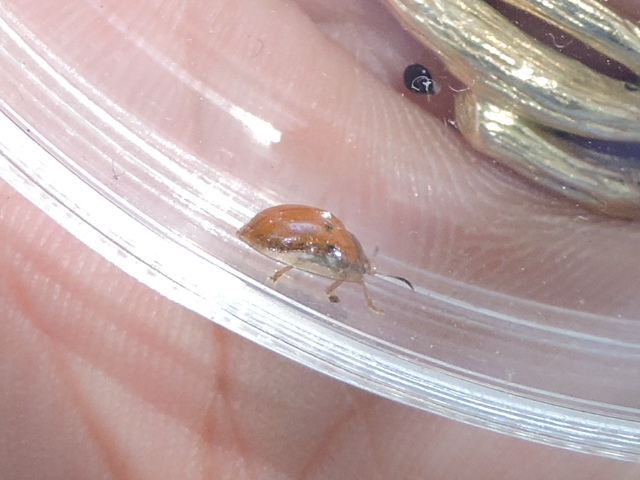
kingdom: Animalia
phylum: Arthropoda
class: Insecta
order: Coleoptera
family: Chrysomelidae
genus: Charidotella
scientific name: Charidotella sexpunctata
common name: Golden tortoise beetle
